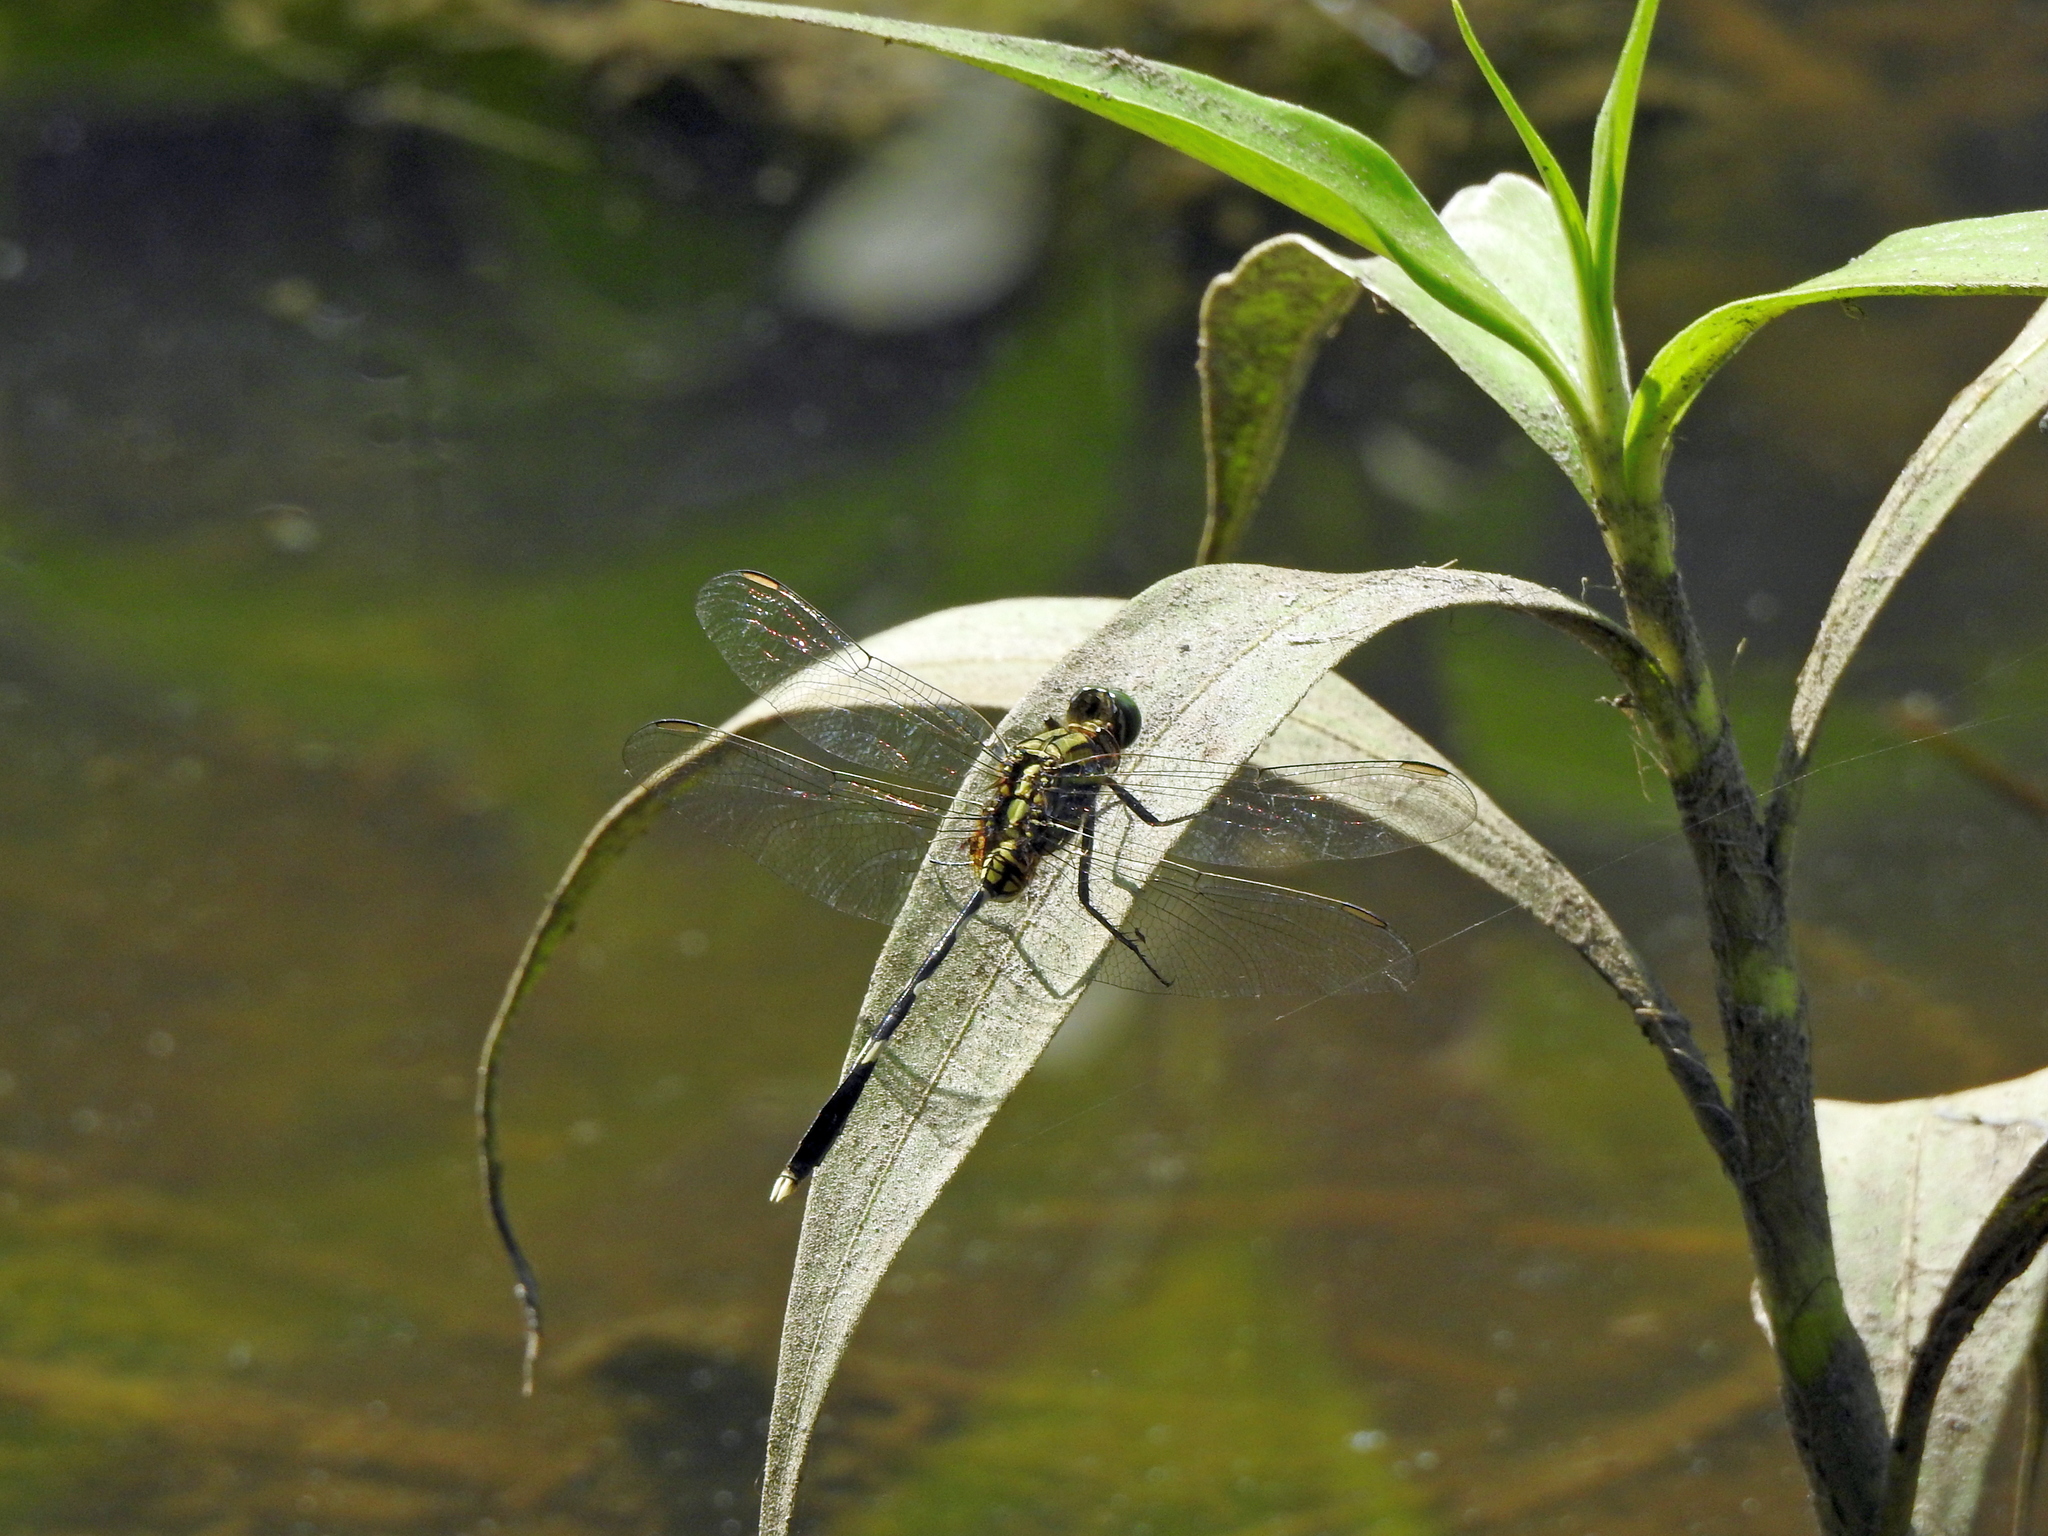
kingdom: Animalia
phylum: Arthropoda
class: Insecta
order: Odonata
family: Libellulidae
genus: Orthetrum
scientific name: Orthetrum sabina
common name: Slender skimmer
